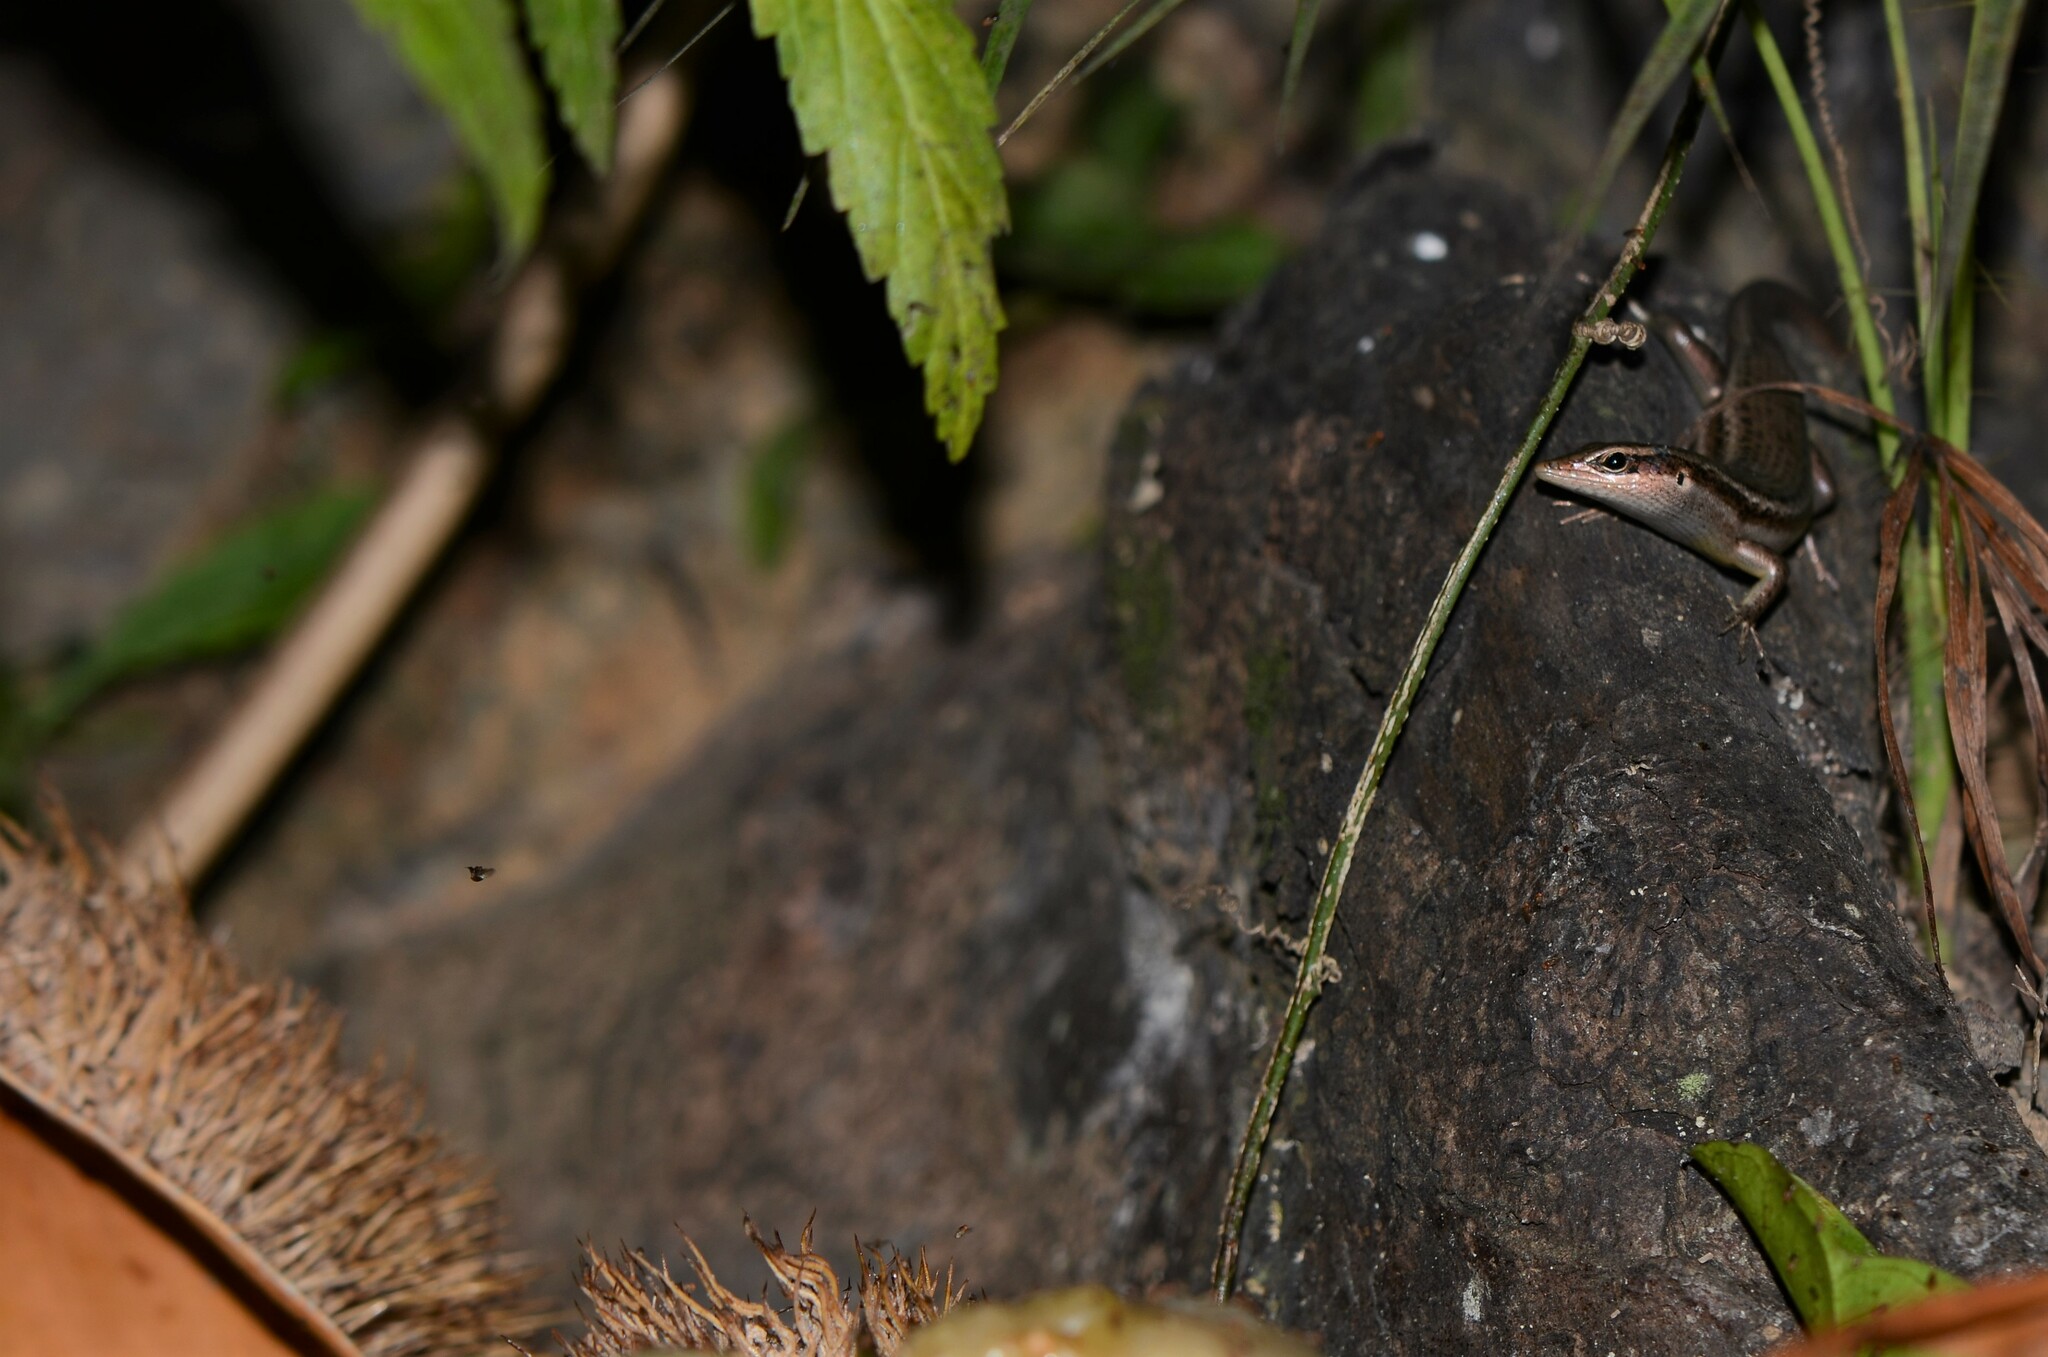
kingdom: Animalia
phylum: Chordata
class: Squamata
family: Scincidae
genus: Trachylepis
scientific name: Trachylepis sechellensis
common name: Seychelles skink
